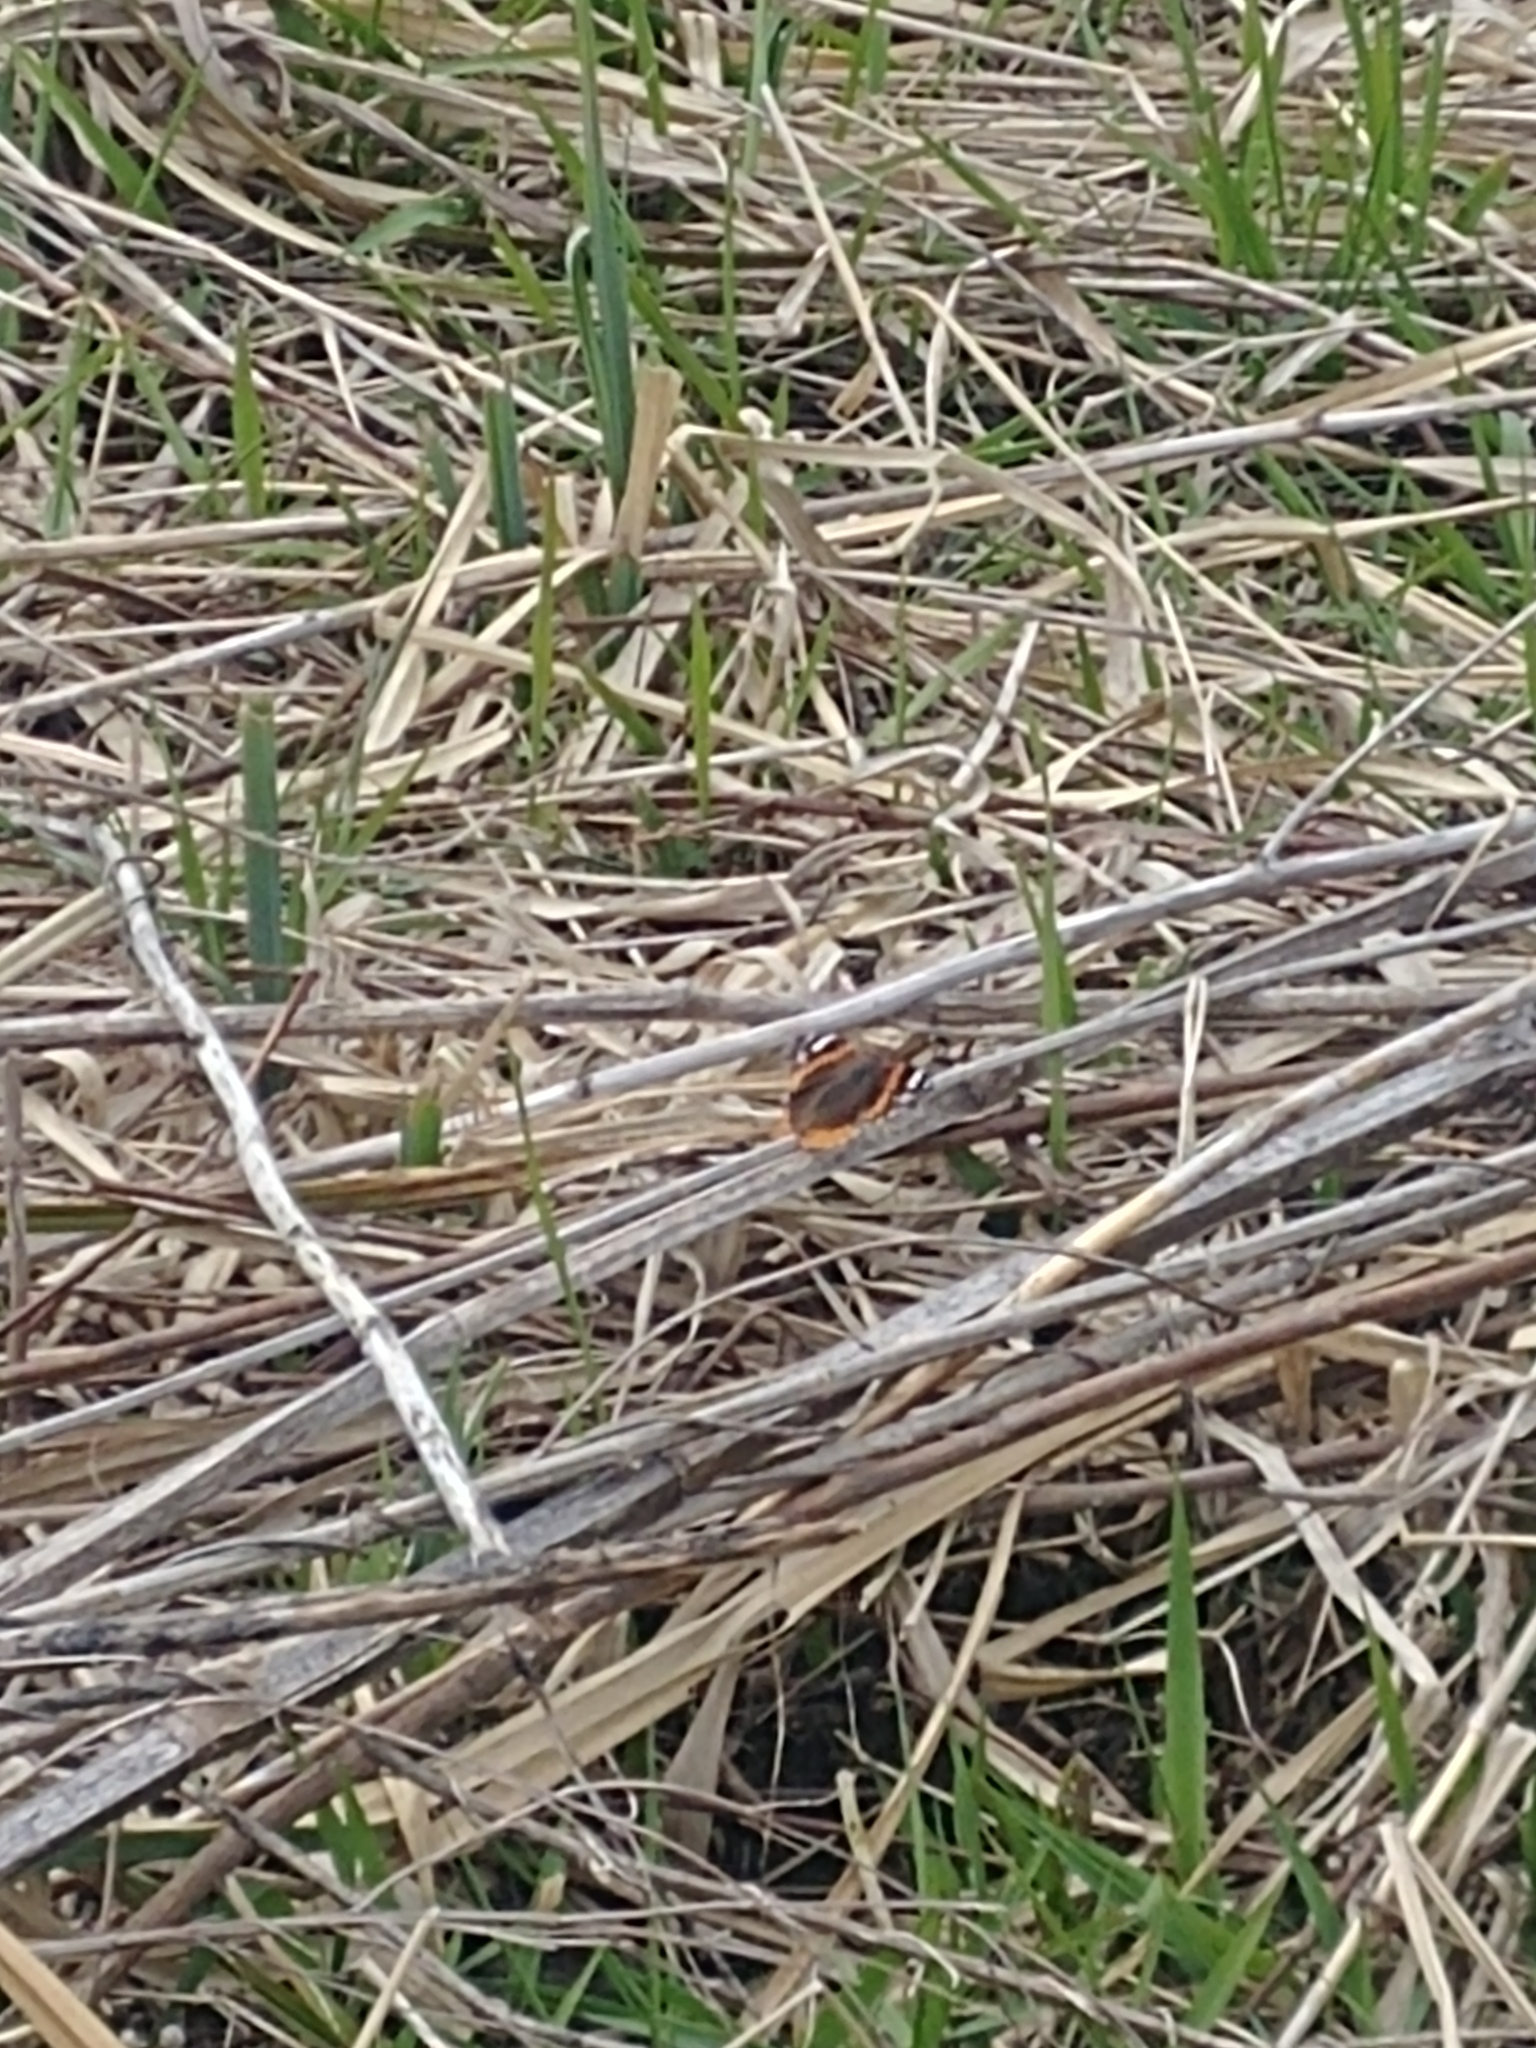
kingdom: Animalia
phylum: Arthropoda
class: Insecta
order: Lepidoptera
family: Nymphalidae
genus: Vanessa
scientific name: Vanessa atalanta
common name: Red admiral
